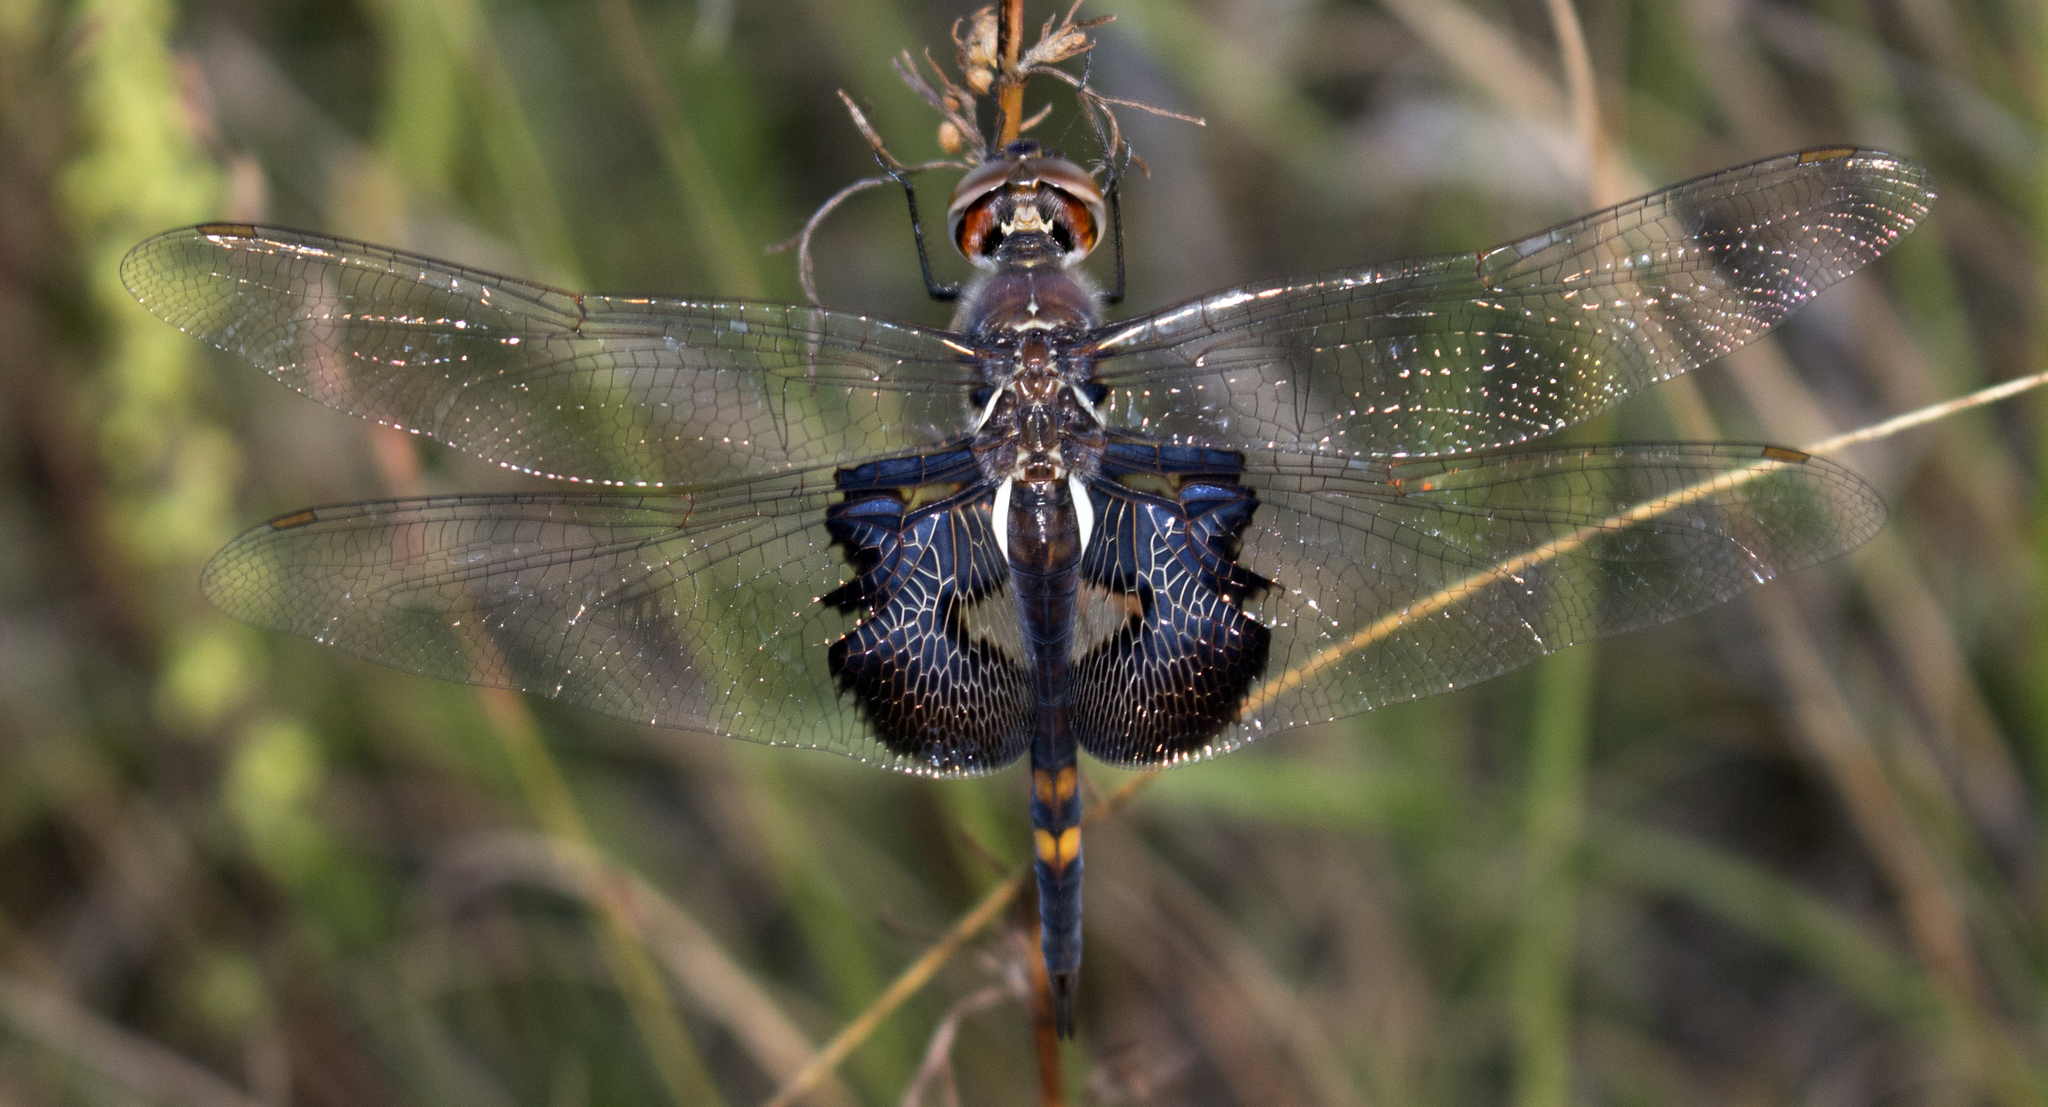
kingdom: Animalia
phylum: Arthropoda
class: Insecta
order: Odonata
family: Libellulidae
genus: Tramea
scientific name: Tramea lacerata
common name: Black saddlebags
